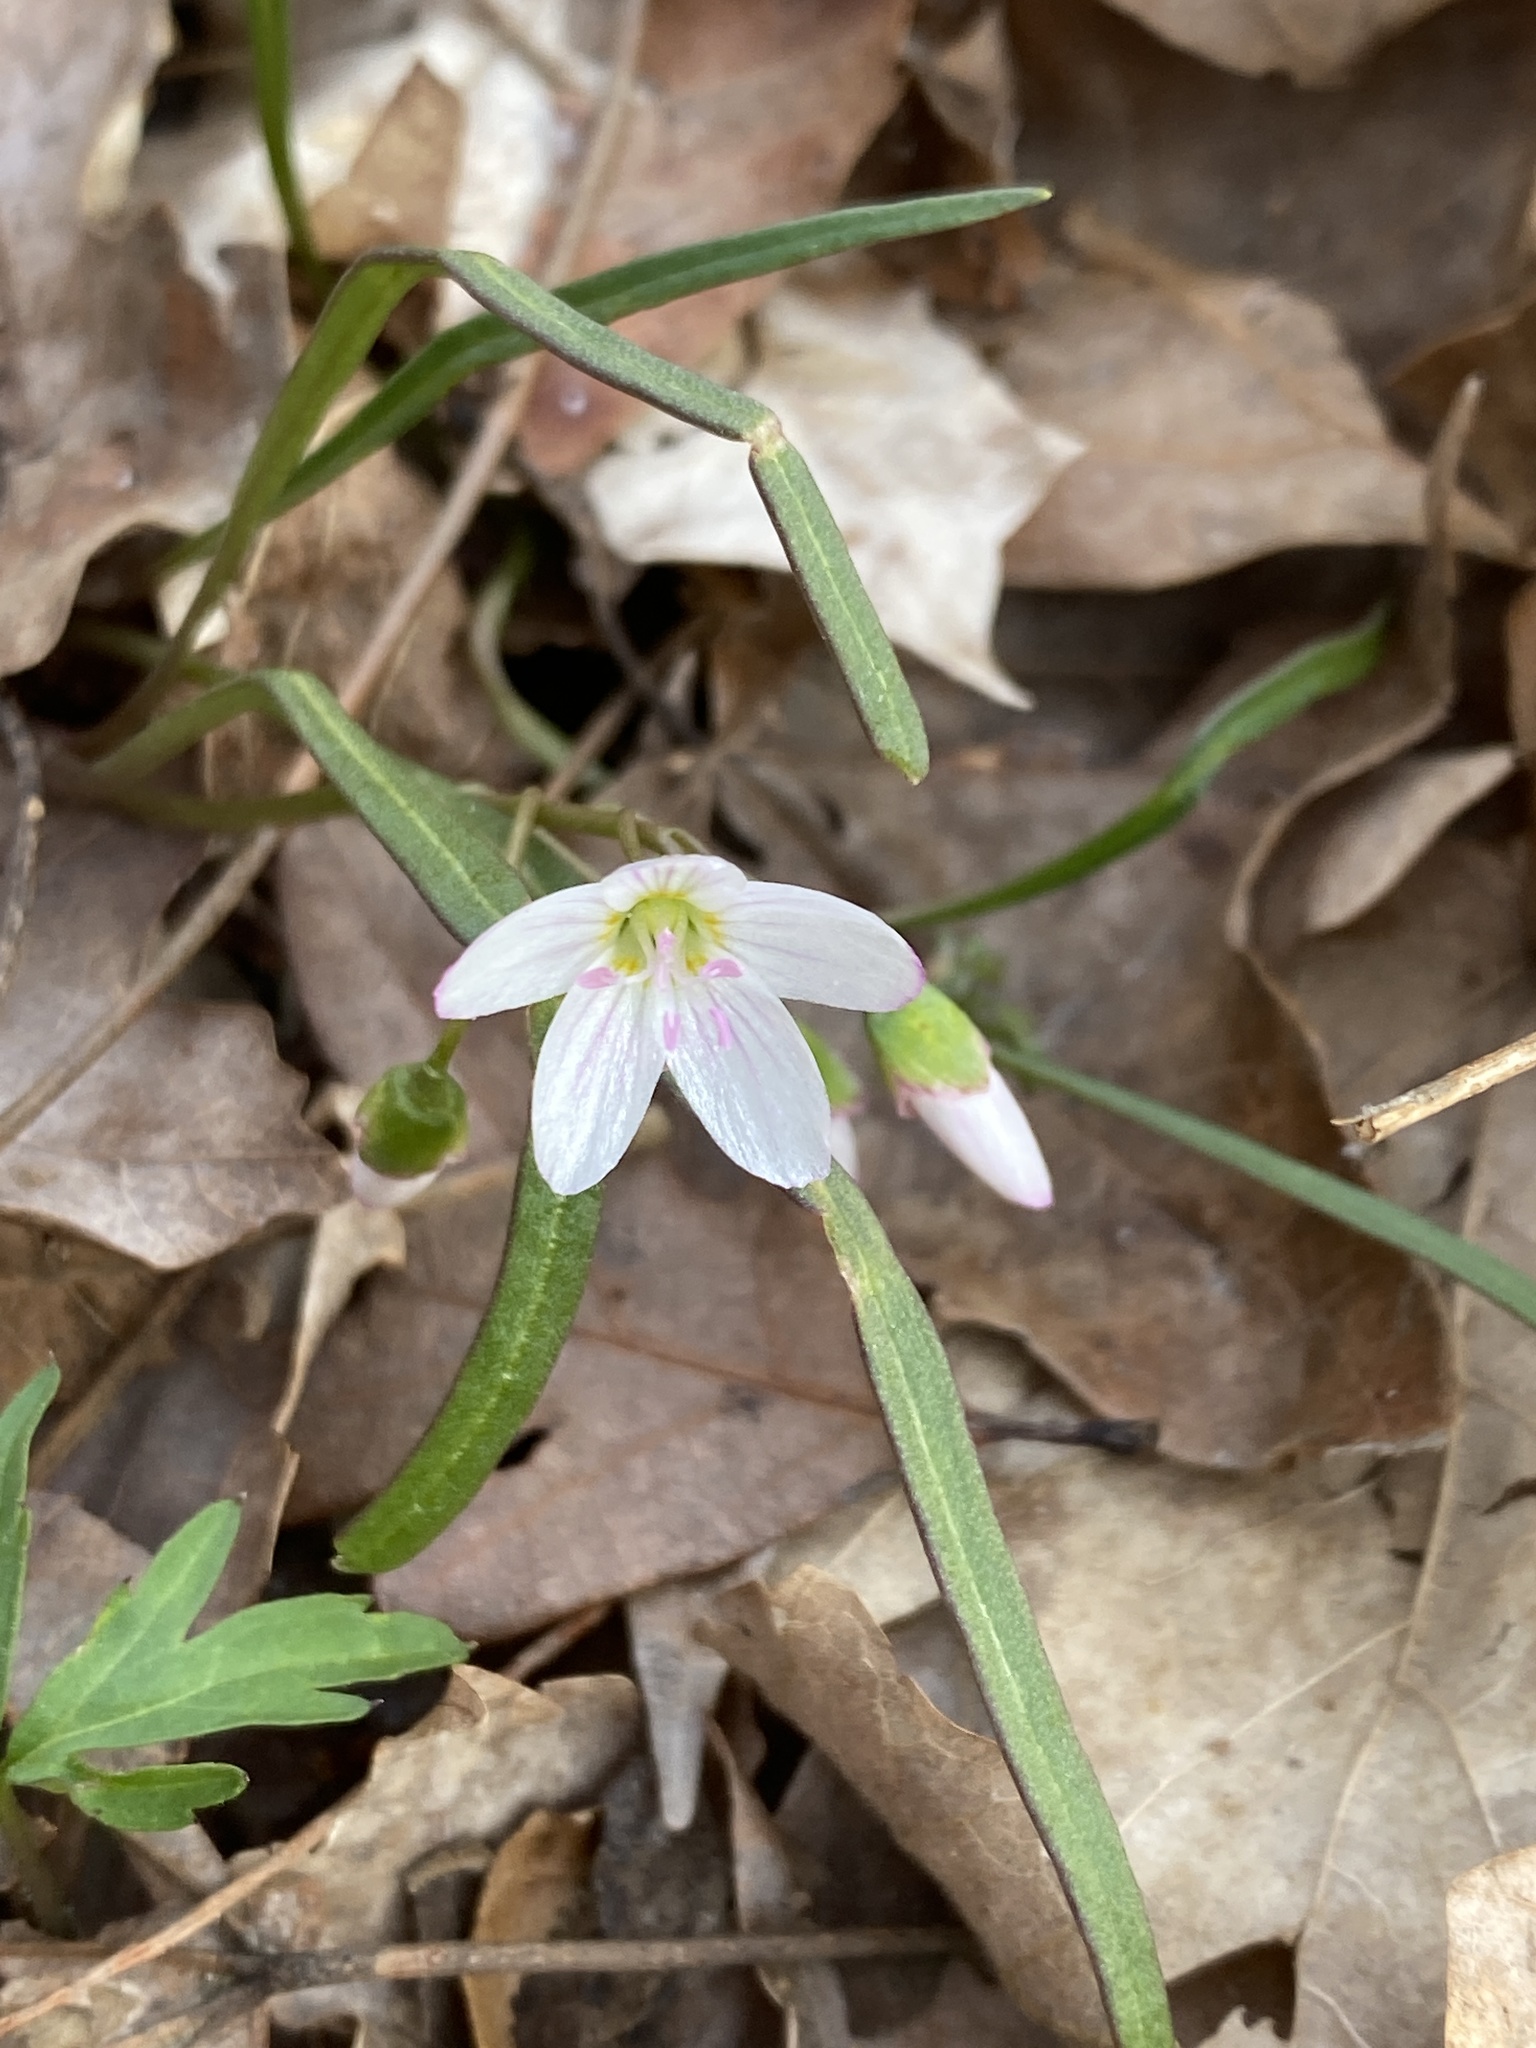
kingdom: Plantae
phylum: Tracheophyta
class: Magnoliopsida
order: Caryophyllales
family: Montiaceae
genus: Claytonia
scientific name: Claytonia virginica
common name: Virginia springbeauty
